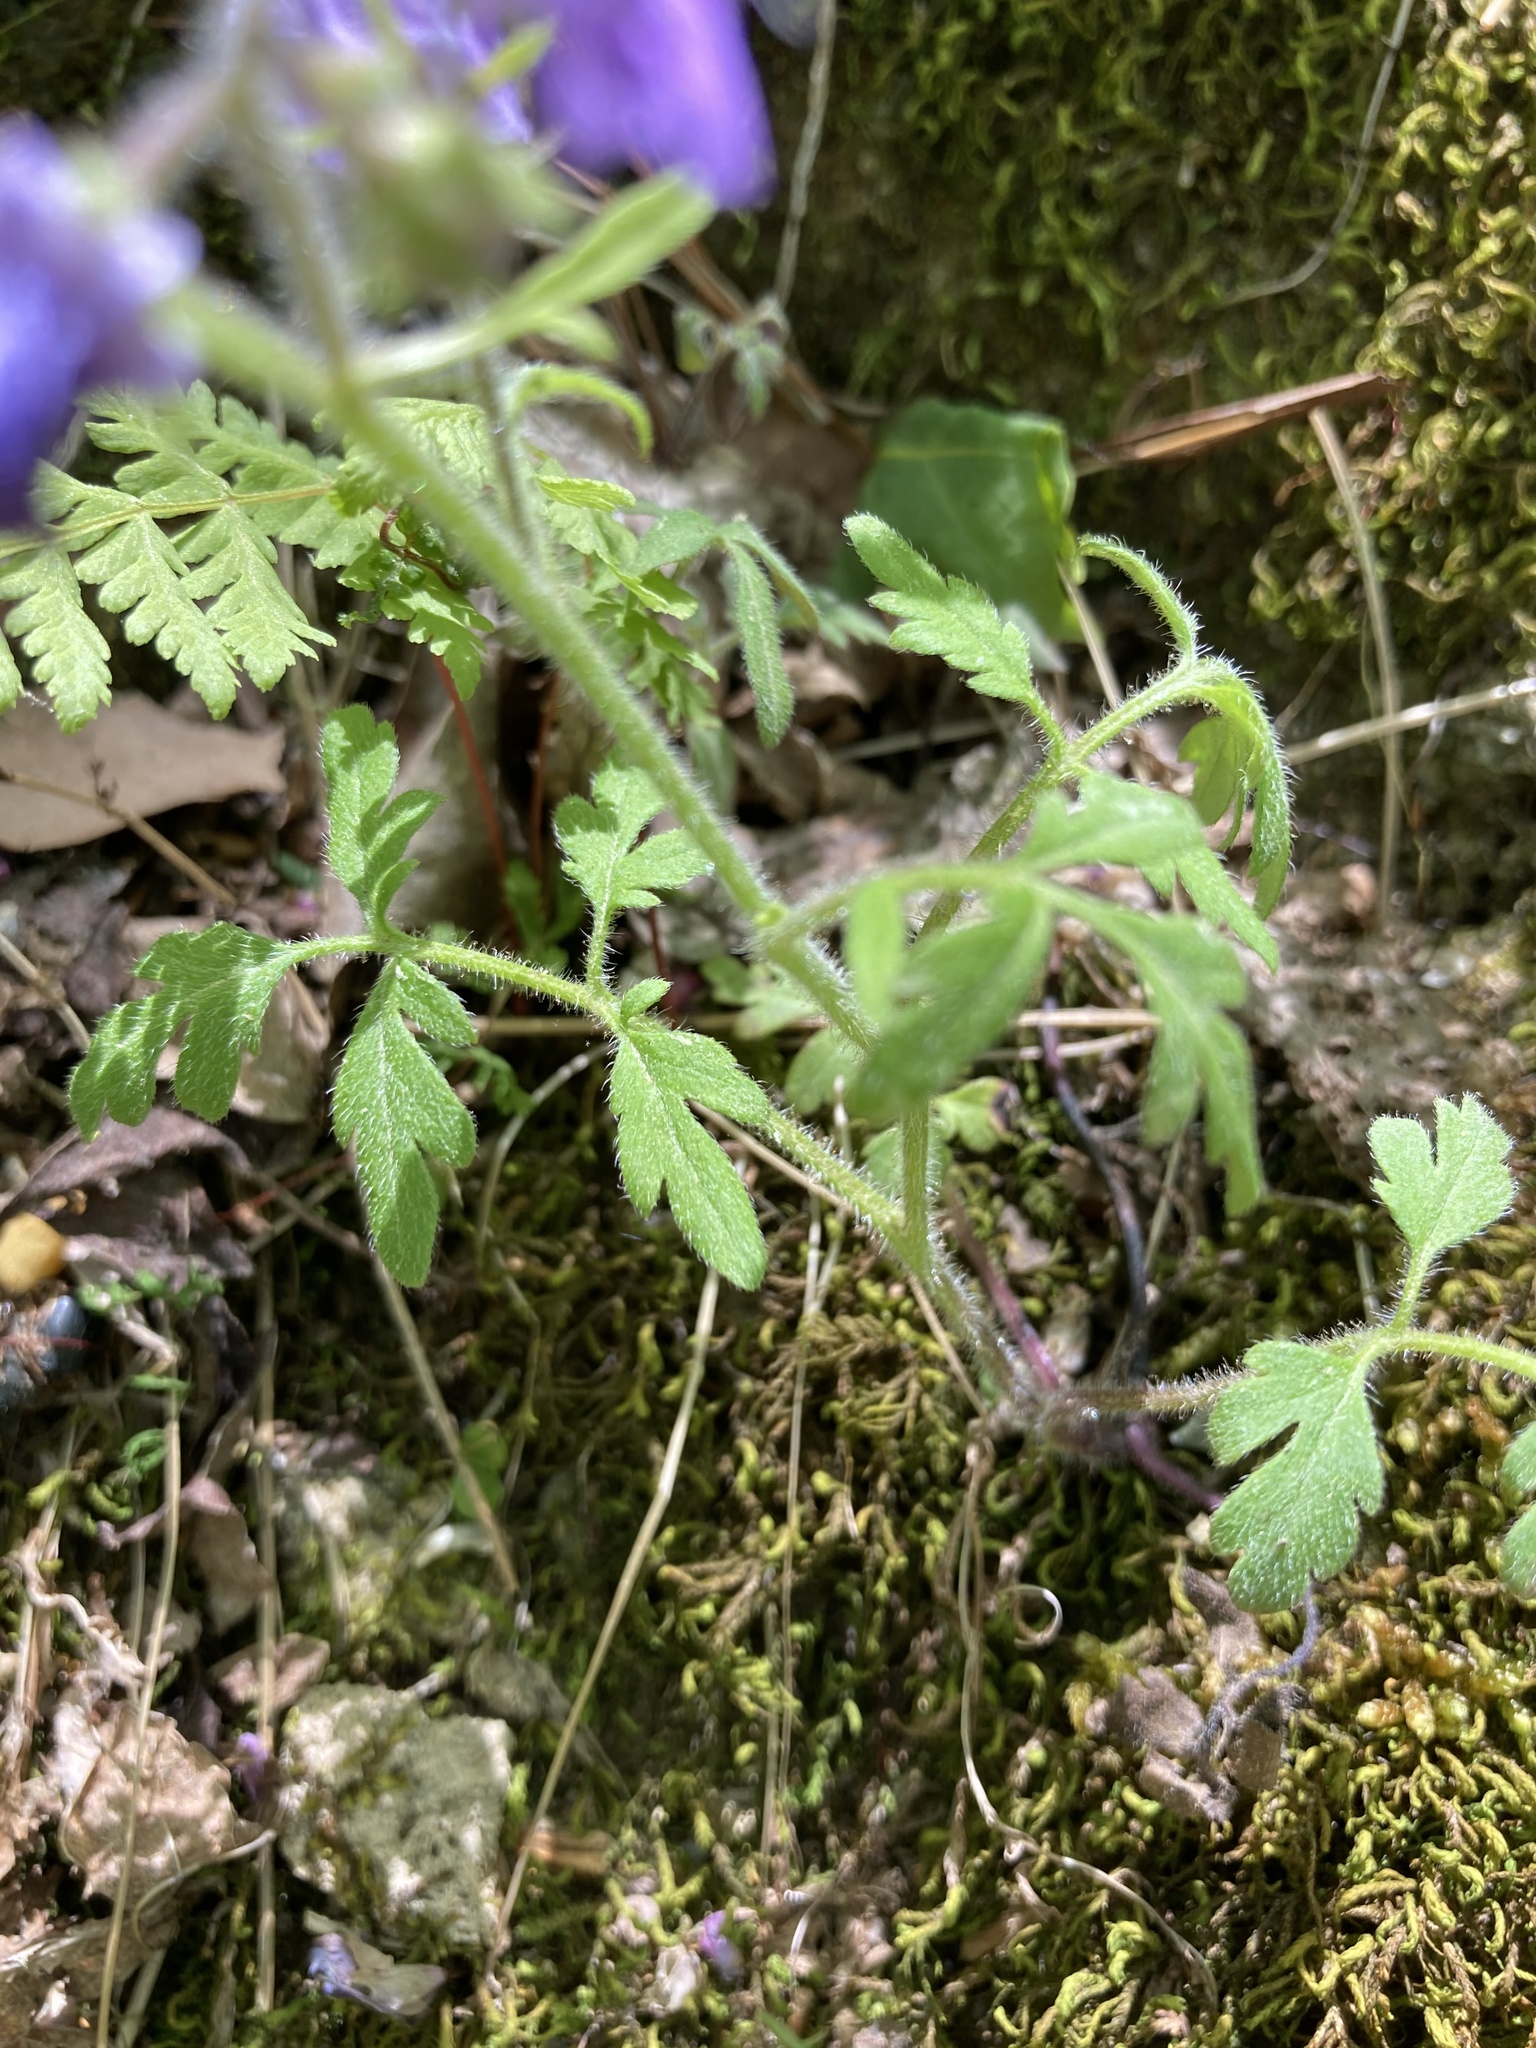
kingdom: Plantae
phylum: Tracheophyta
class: Magnoliopsida
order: Boraginales
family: Hydrophyllaceae
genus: Phacelia
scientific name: Phacelia bipinnatifida
